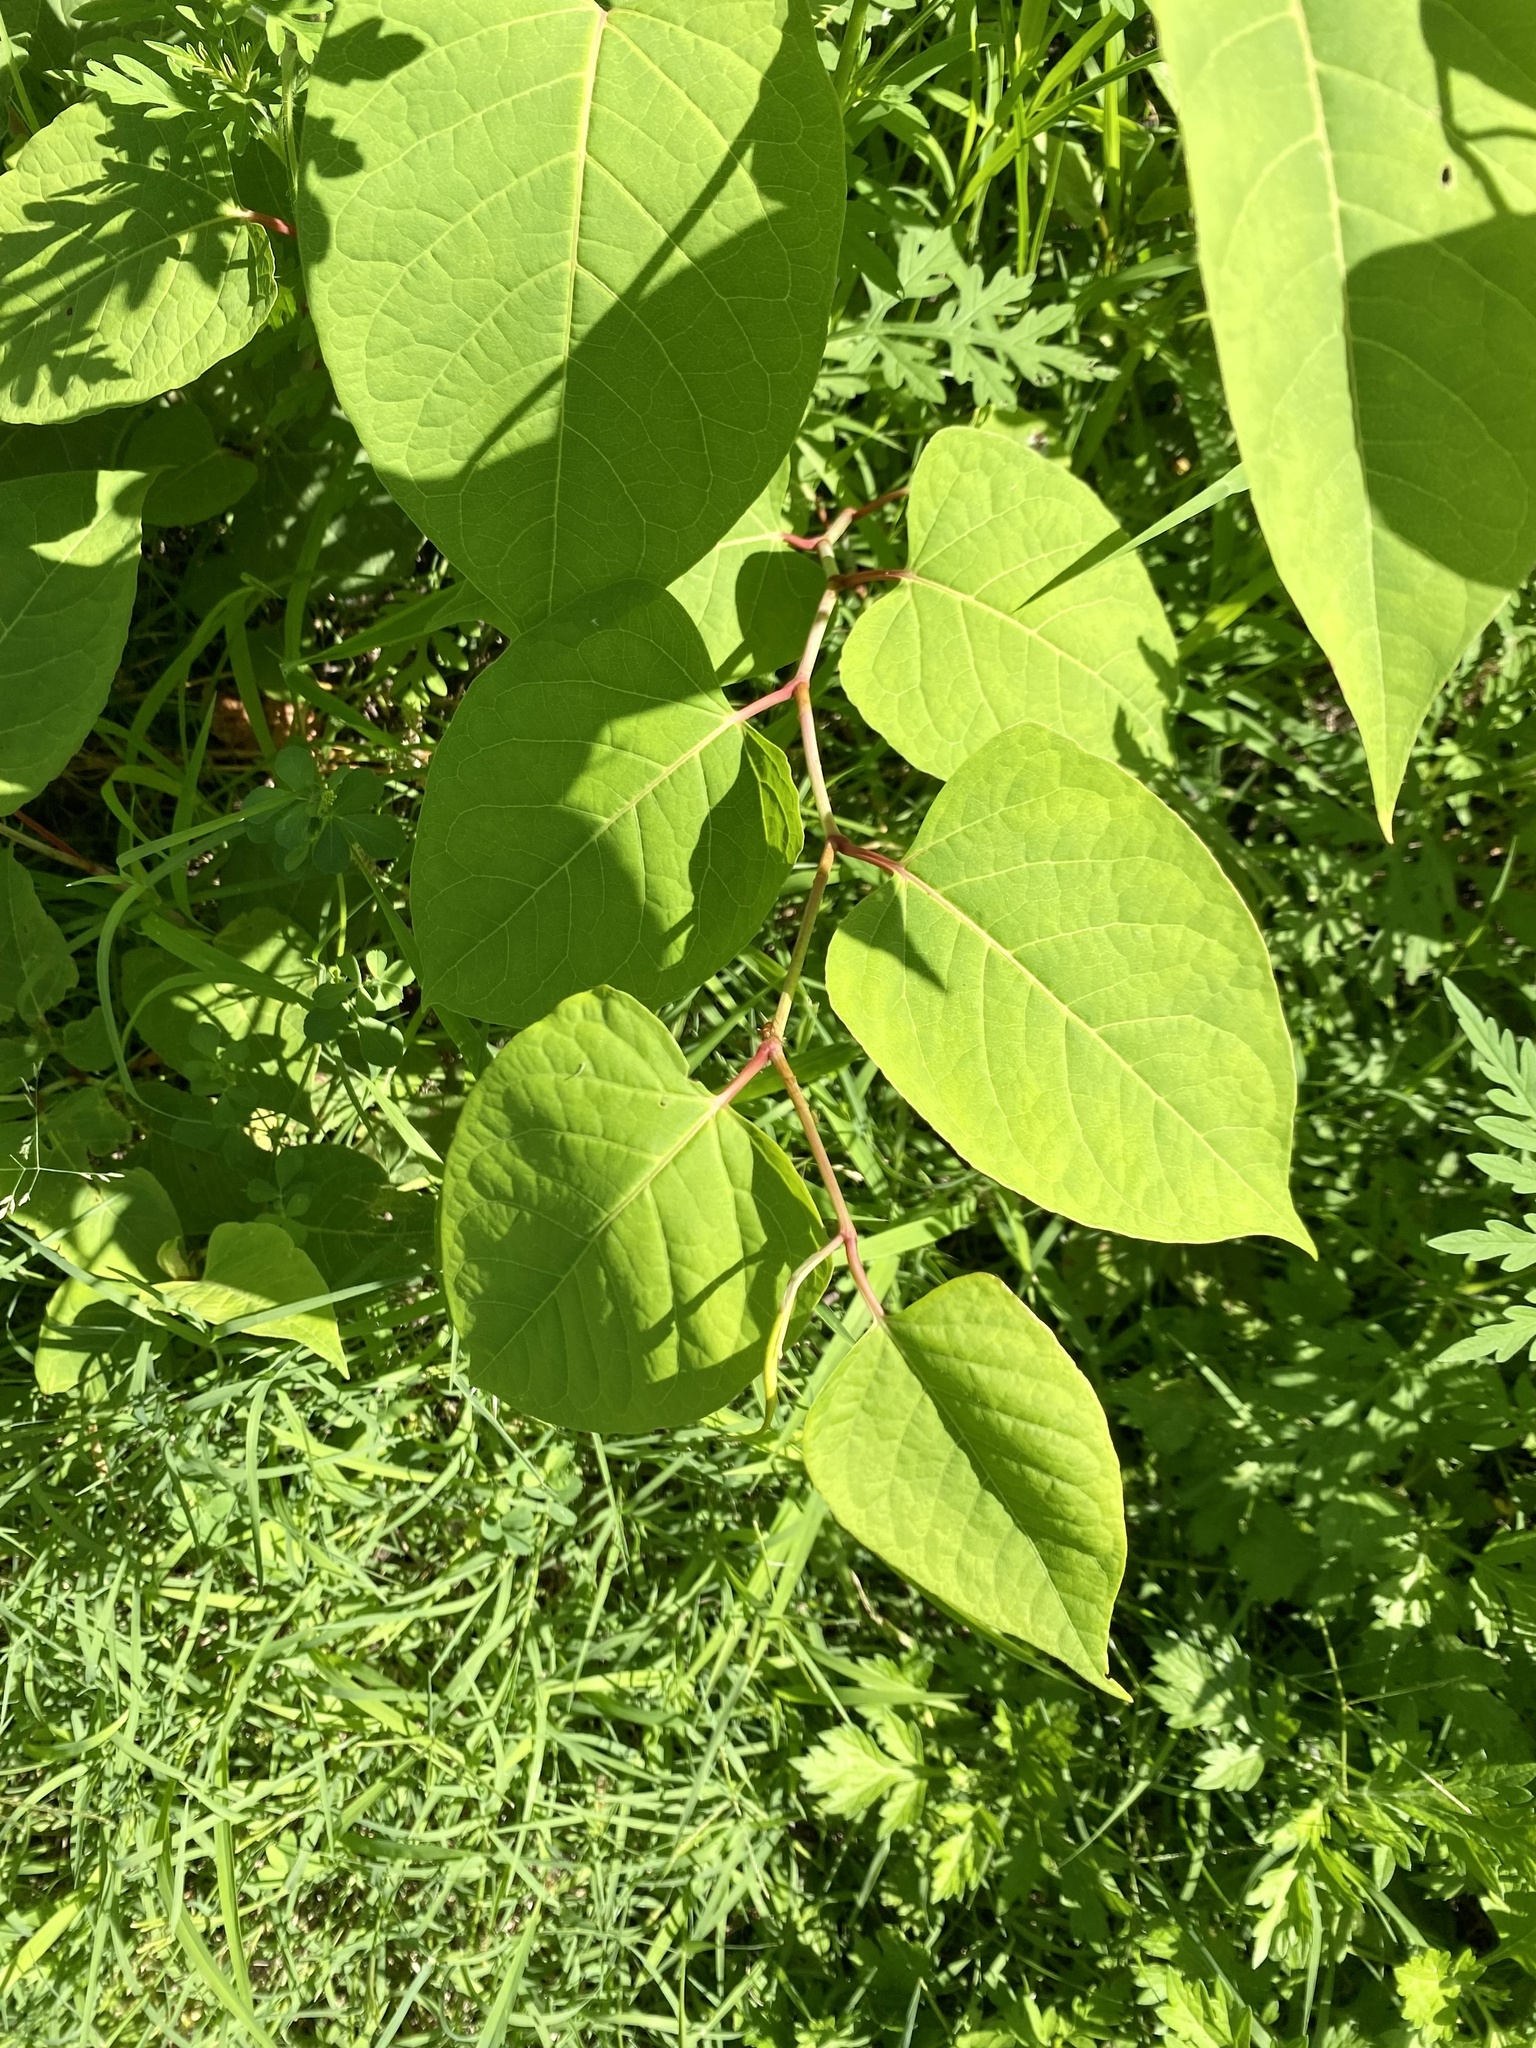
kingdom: Plantae
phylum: Tracheophyta
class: Magnoliopsida
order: Caryophyllales
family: Polygonaceae
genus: Reynoutria
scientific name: Reynoutria japonica
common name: Japanese knotweed
